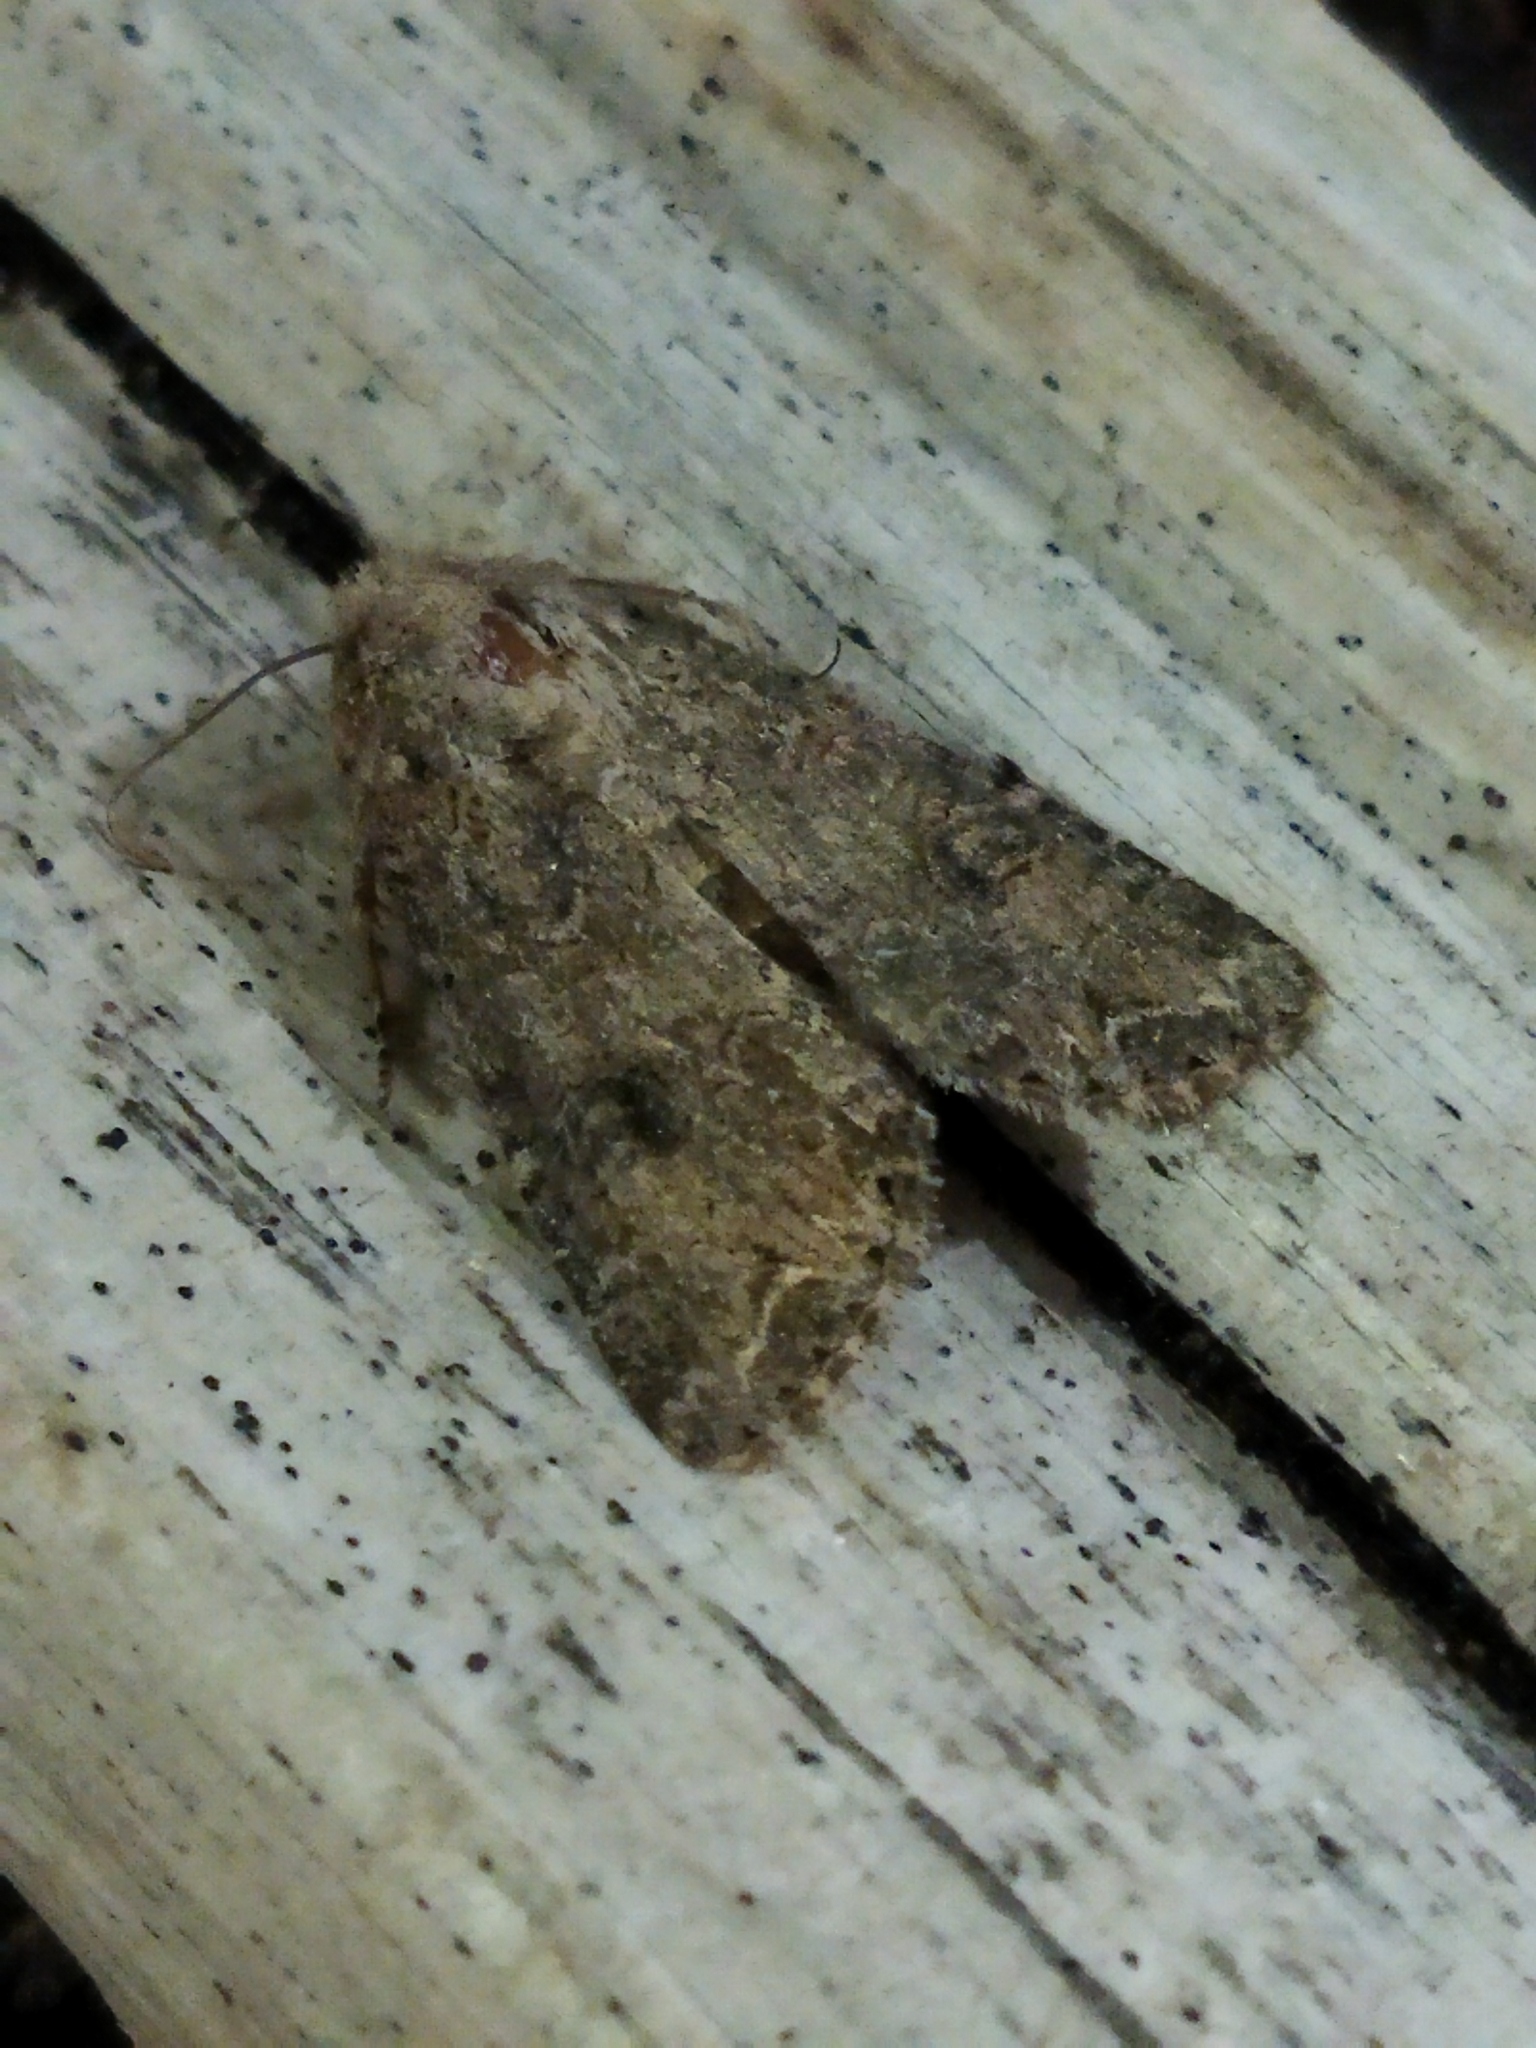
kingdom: Animalia
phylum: Arthropoda
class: Insecta
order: Lepidoptera
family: Noctuidae
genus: Anarta
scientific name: Anarta trifolii
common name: Clover cutworm moth
